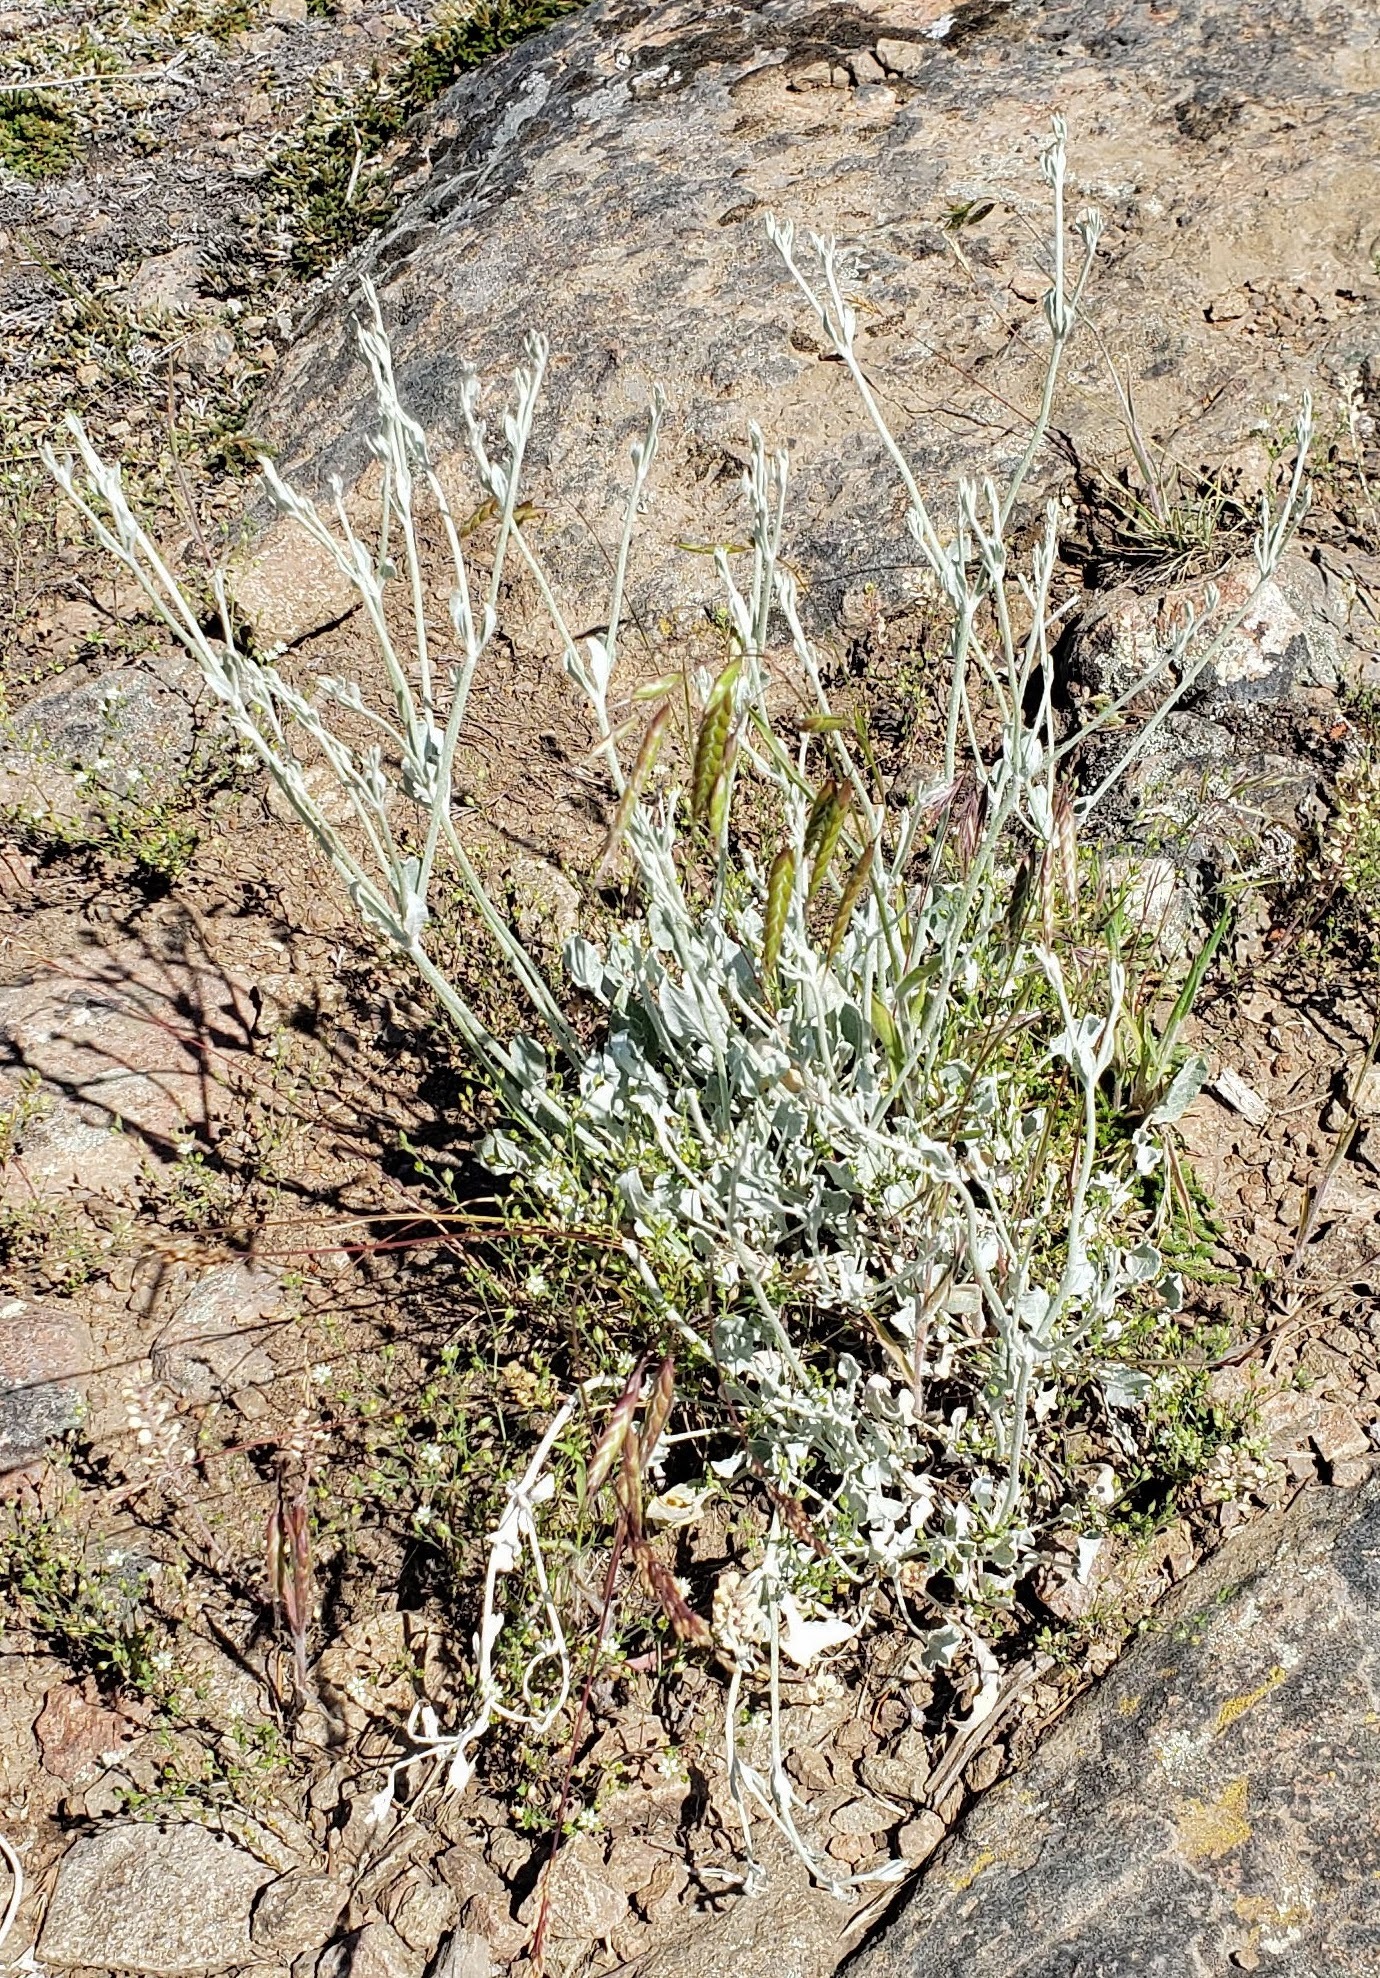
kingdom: Plantae
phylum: Tracheophyta
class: Magnoliopsida
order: Caryophyllales
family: Polygonaceae
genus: Eriogonum
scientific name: Eriogonum niveum
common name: Snow wild buckwheat
